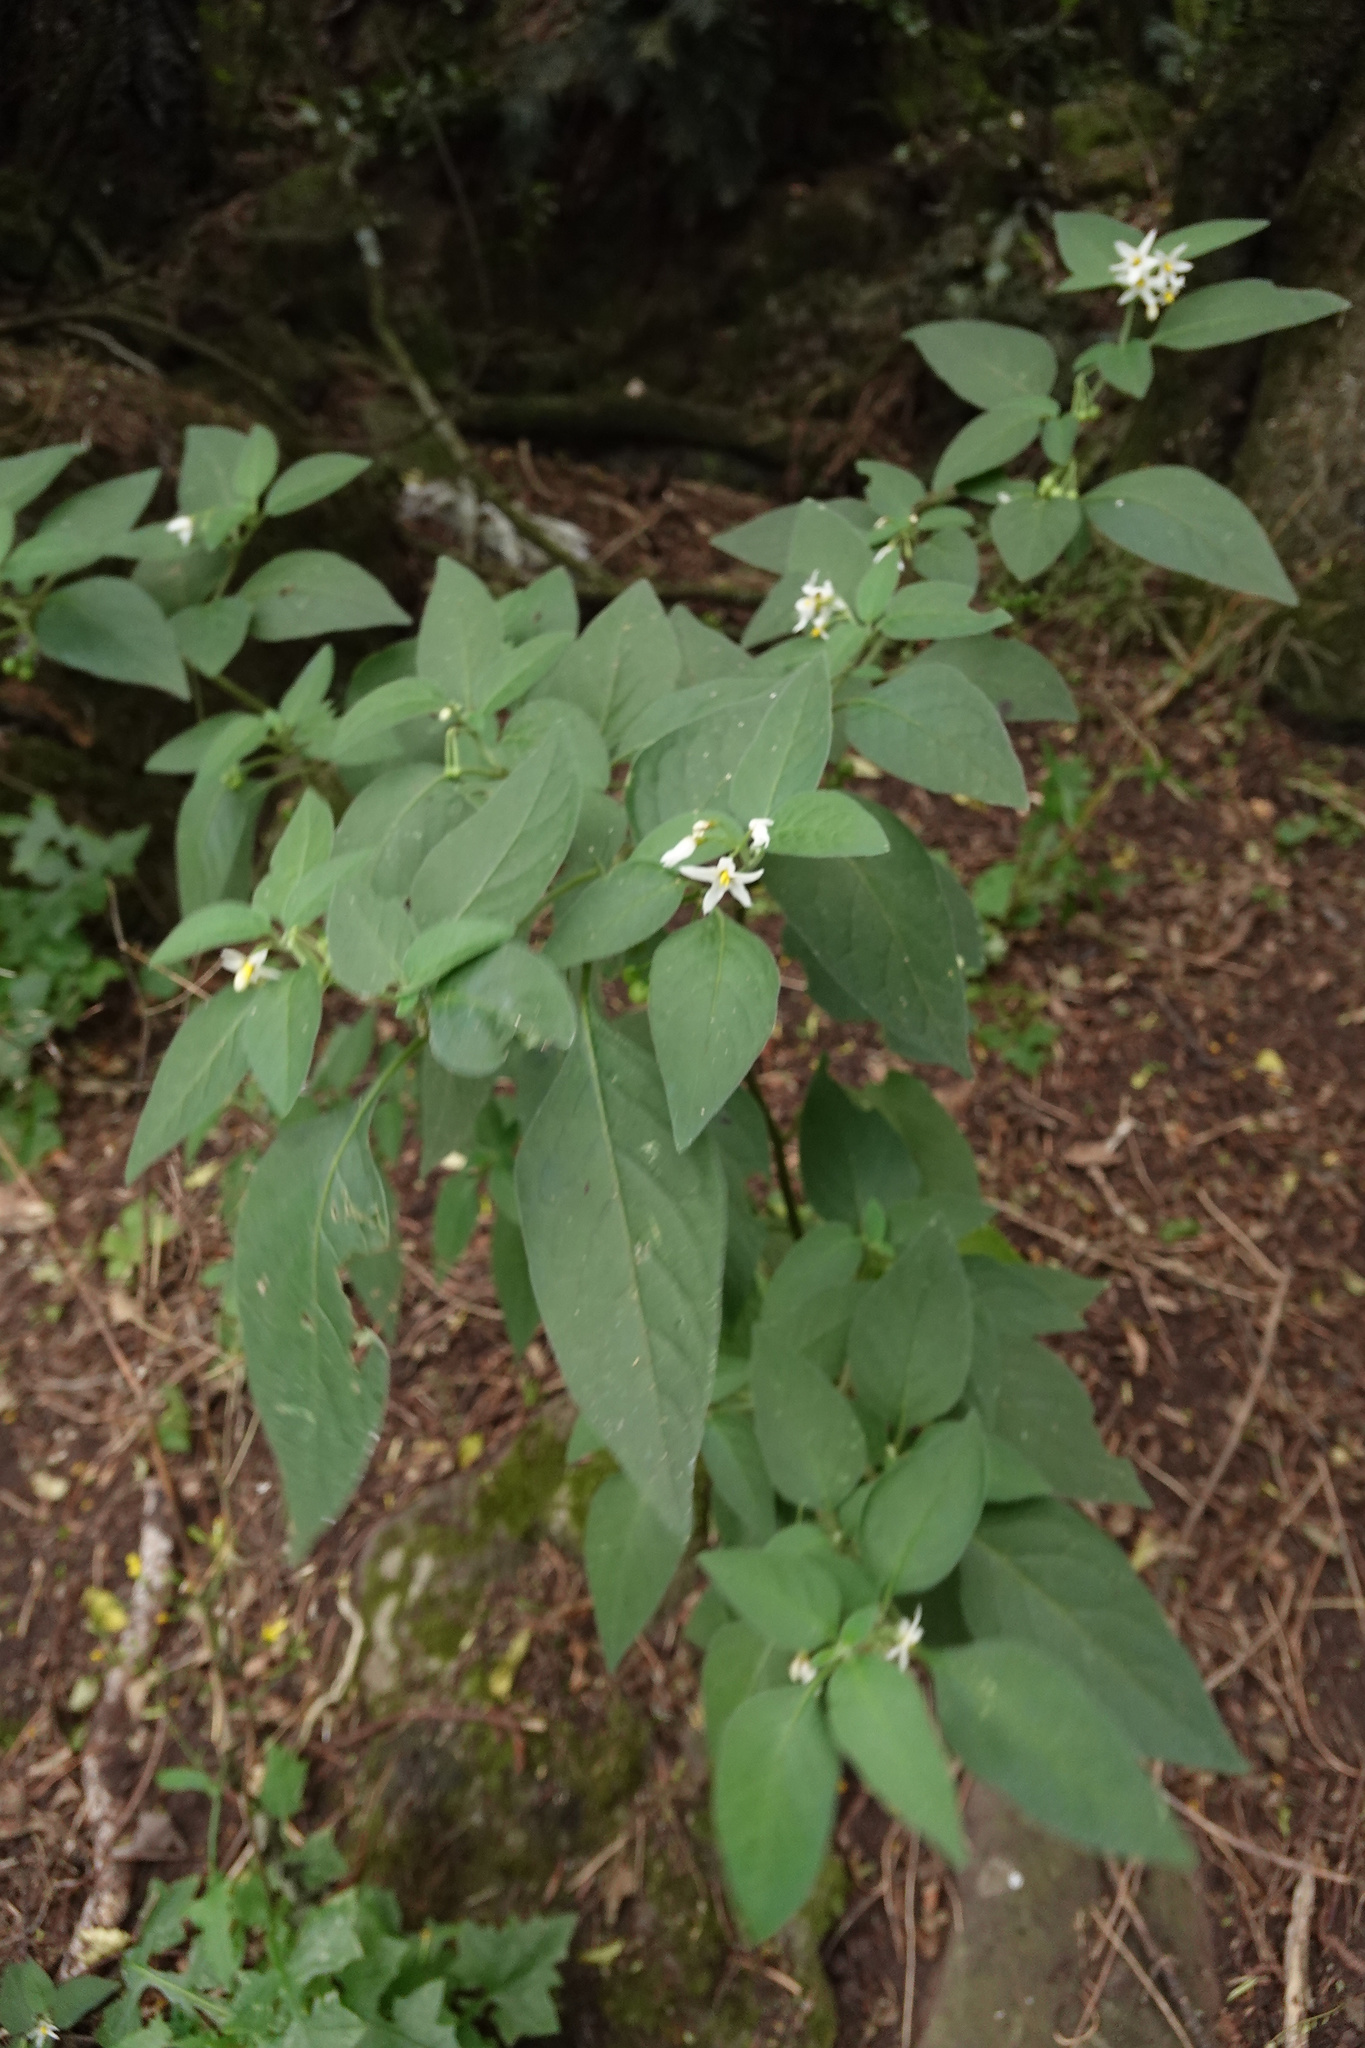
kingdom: Plantae
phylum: Tracheophyta
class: Magnoliopsida
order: Solanales
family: Solanaceae
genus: Solanum
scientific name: Solanum chenopodioides
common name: Tall nightshade
